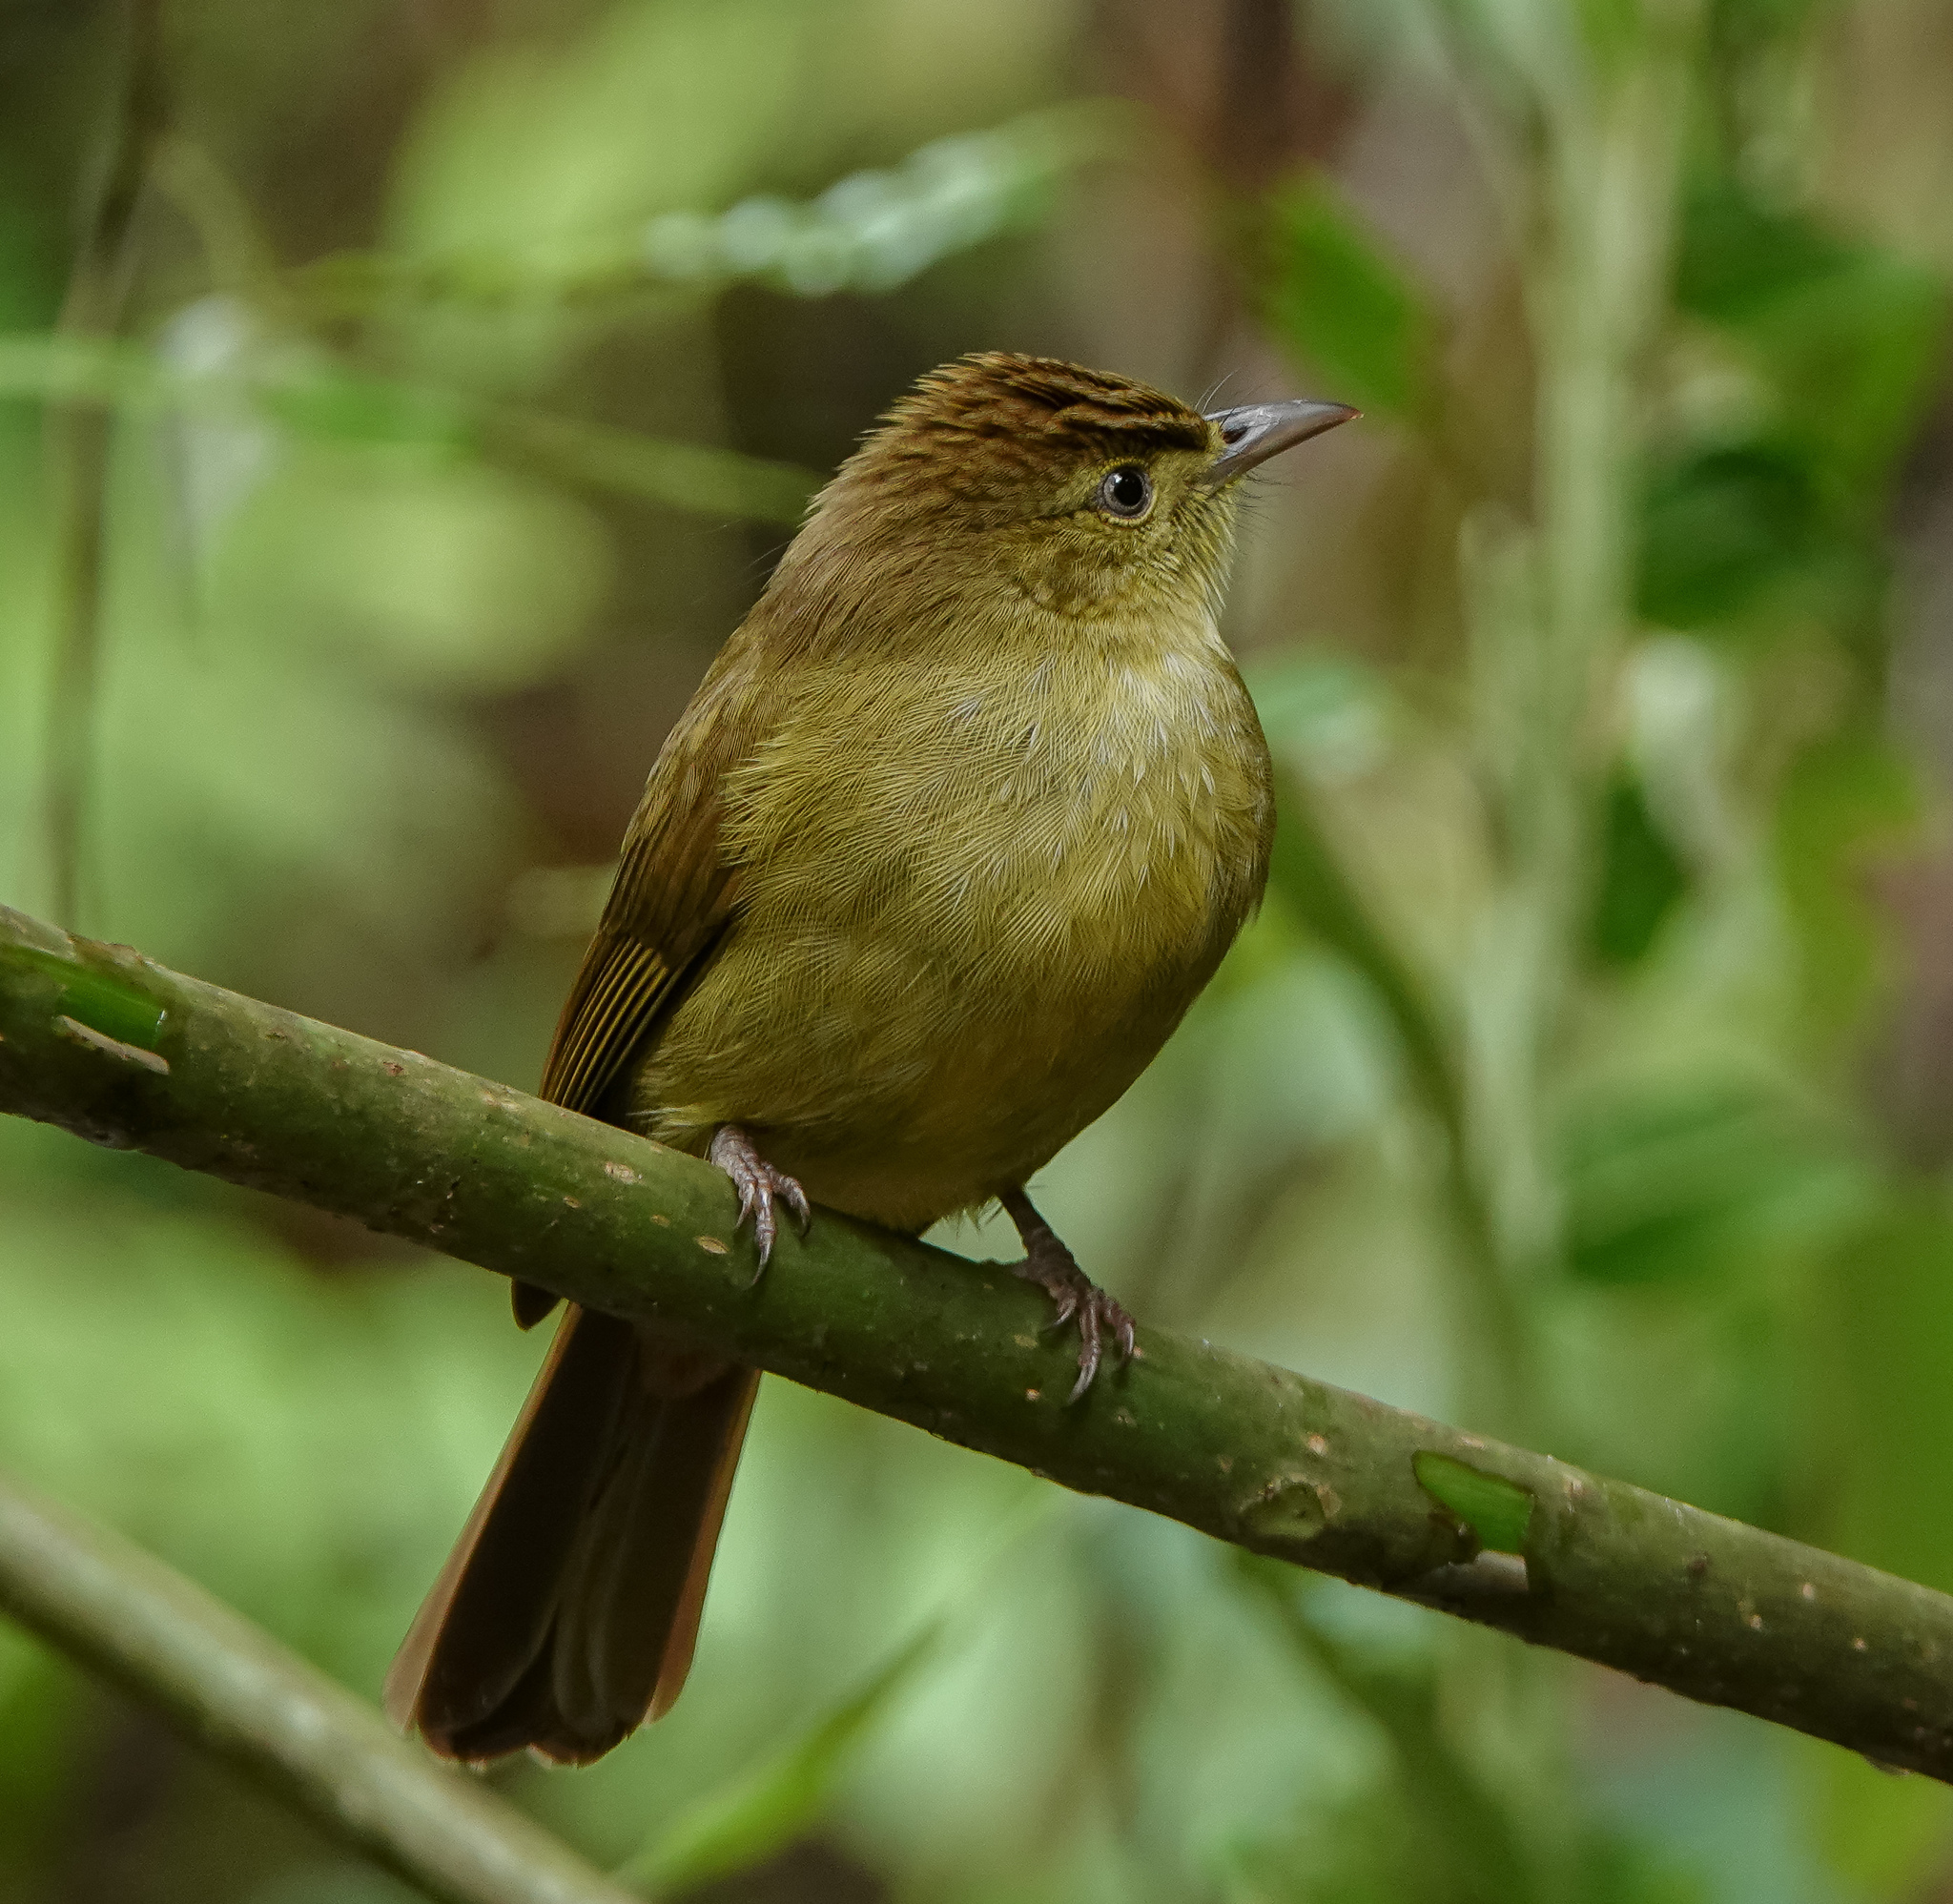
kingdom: Animalia
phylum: Chordata
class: Aves
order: Passeriformes
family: Pycnonotidae
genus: Iole
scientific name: Iole virescens
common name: Olive bulbul
